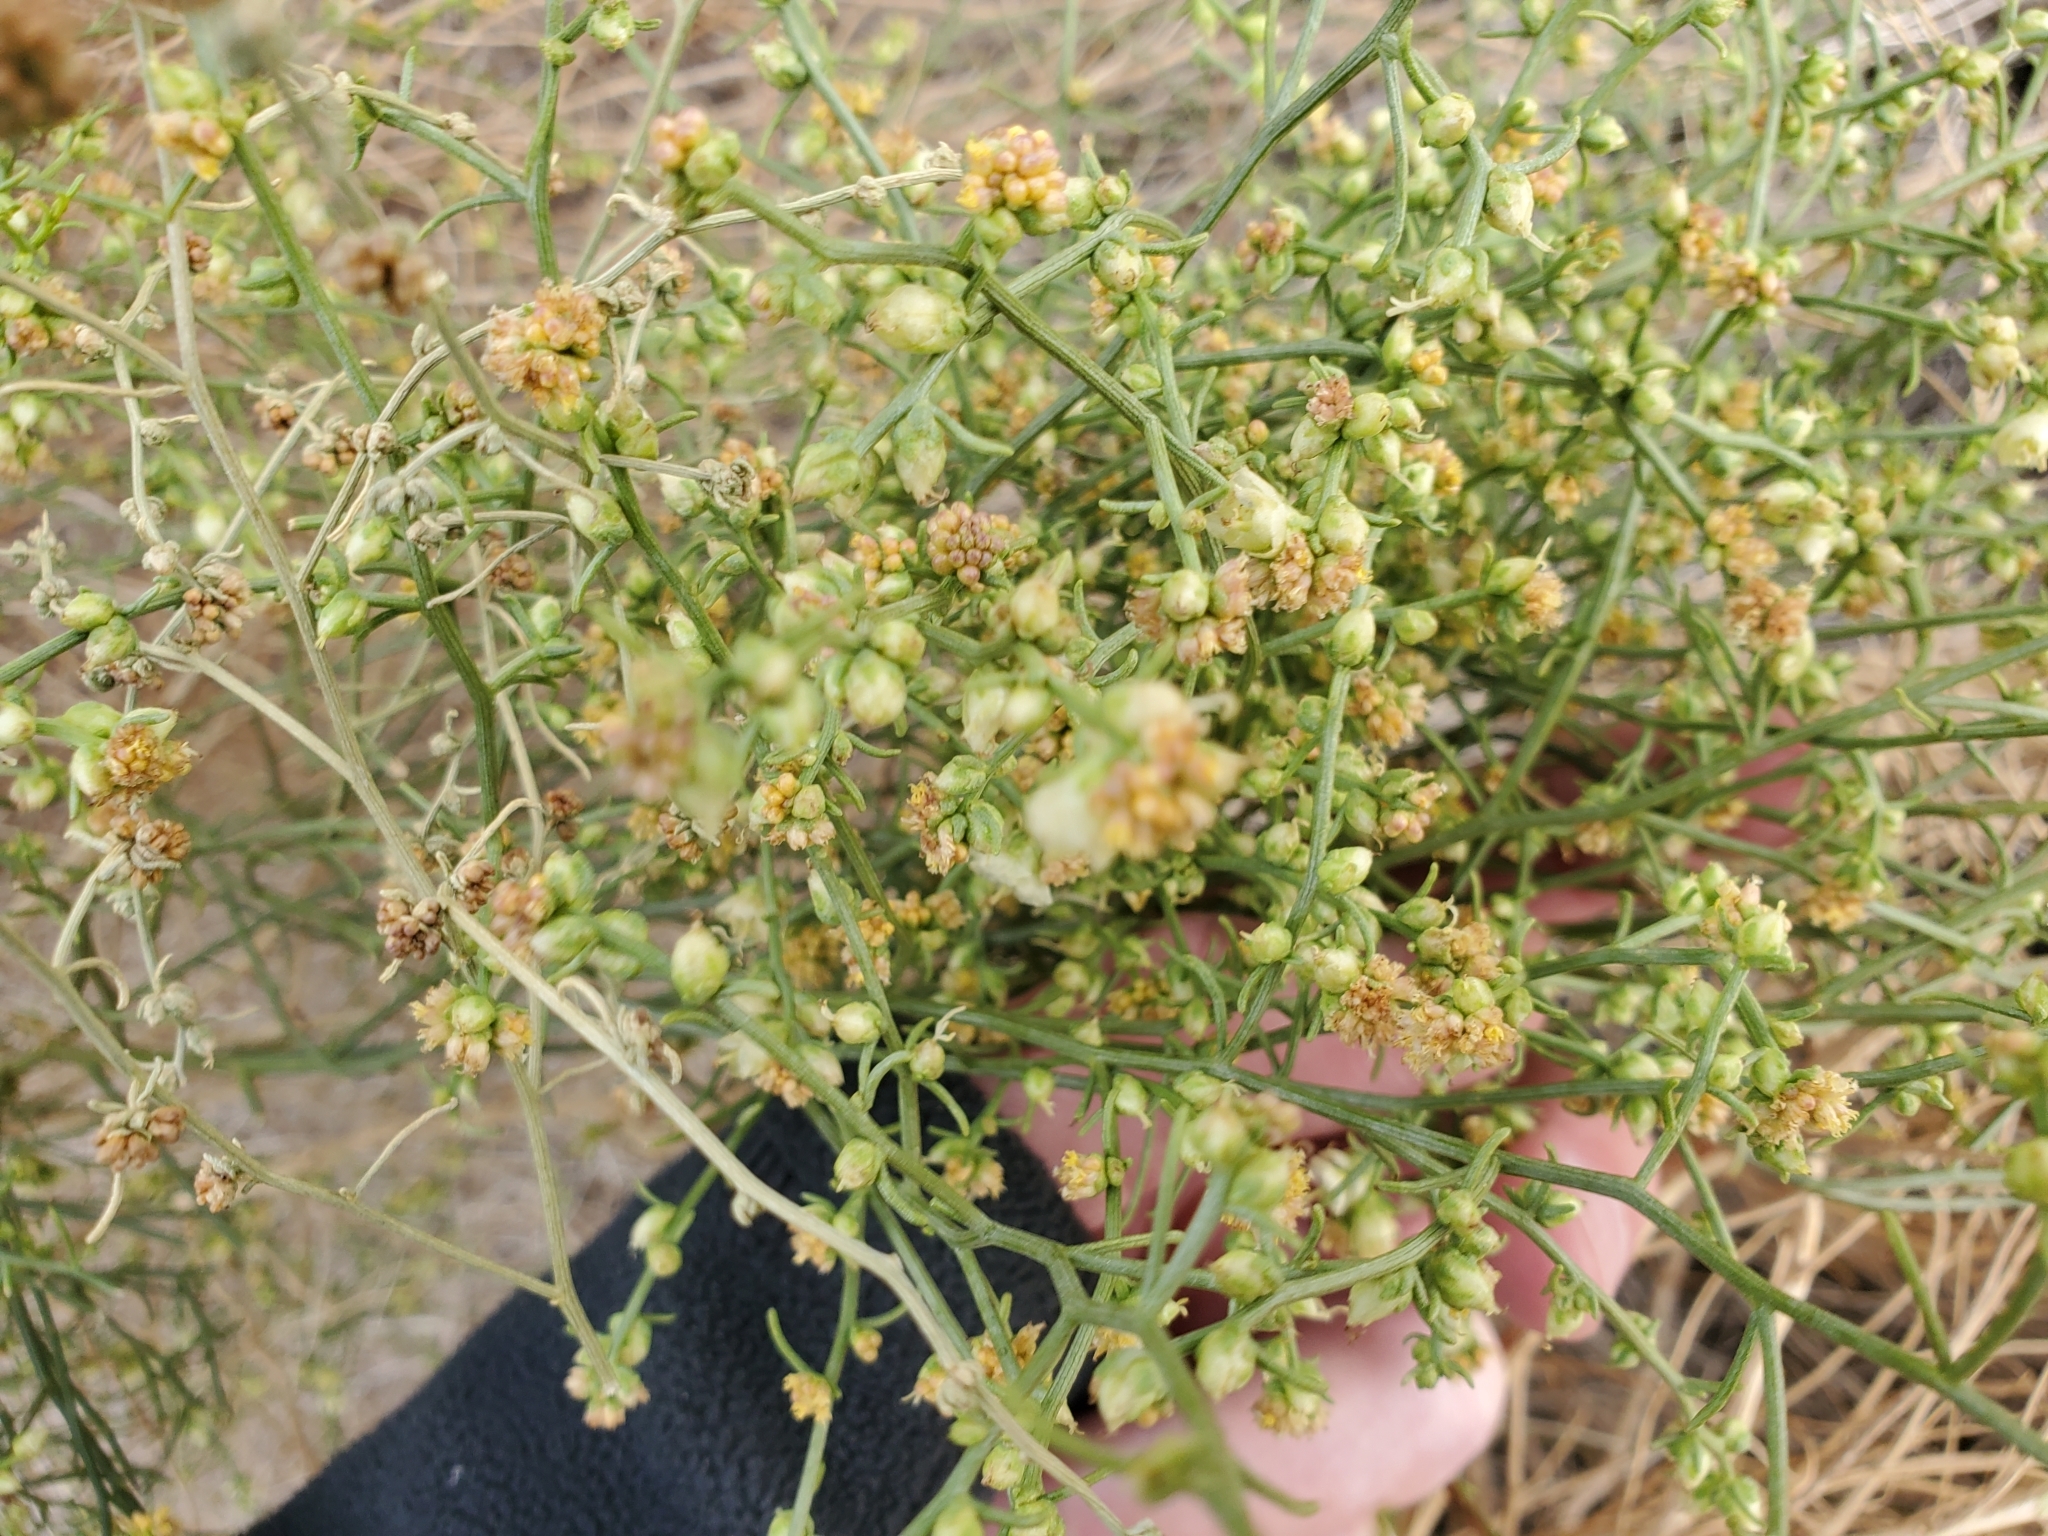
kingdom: Plantae
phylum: Tracheophyta
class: Magnoliopsida
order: Asterales
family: Asteraceae
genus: Ambrosia
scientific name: Ambrosia salsola
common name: Burrobrush
